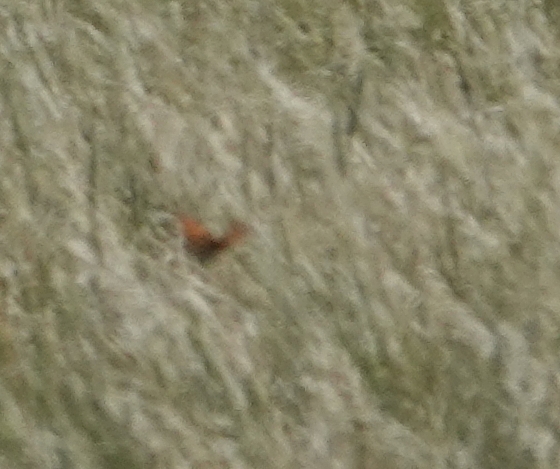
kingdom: Animalia
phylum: Arthropoda
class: Insecta
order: Lepidoptera
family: Nymphalidae
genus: Speyeria
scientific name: Speyeria idalia
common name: Regal fritillary
